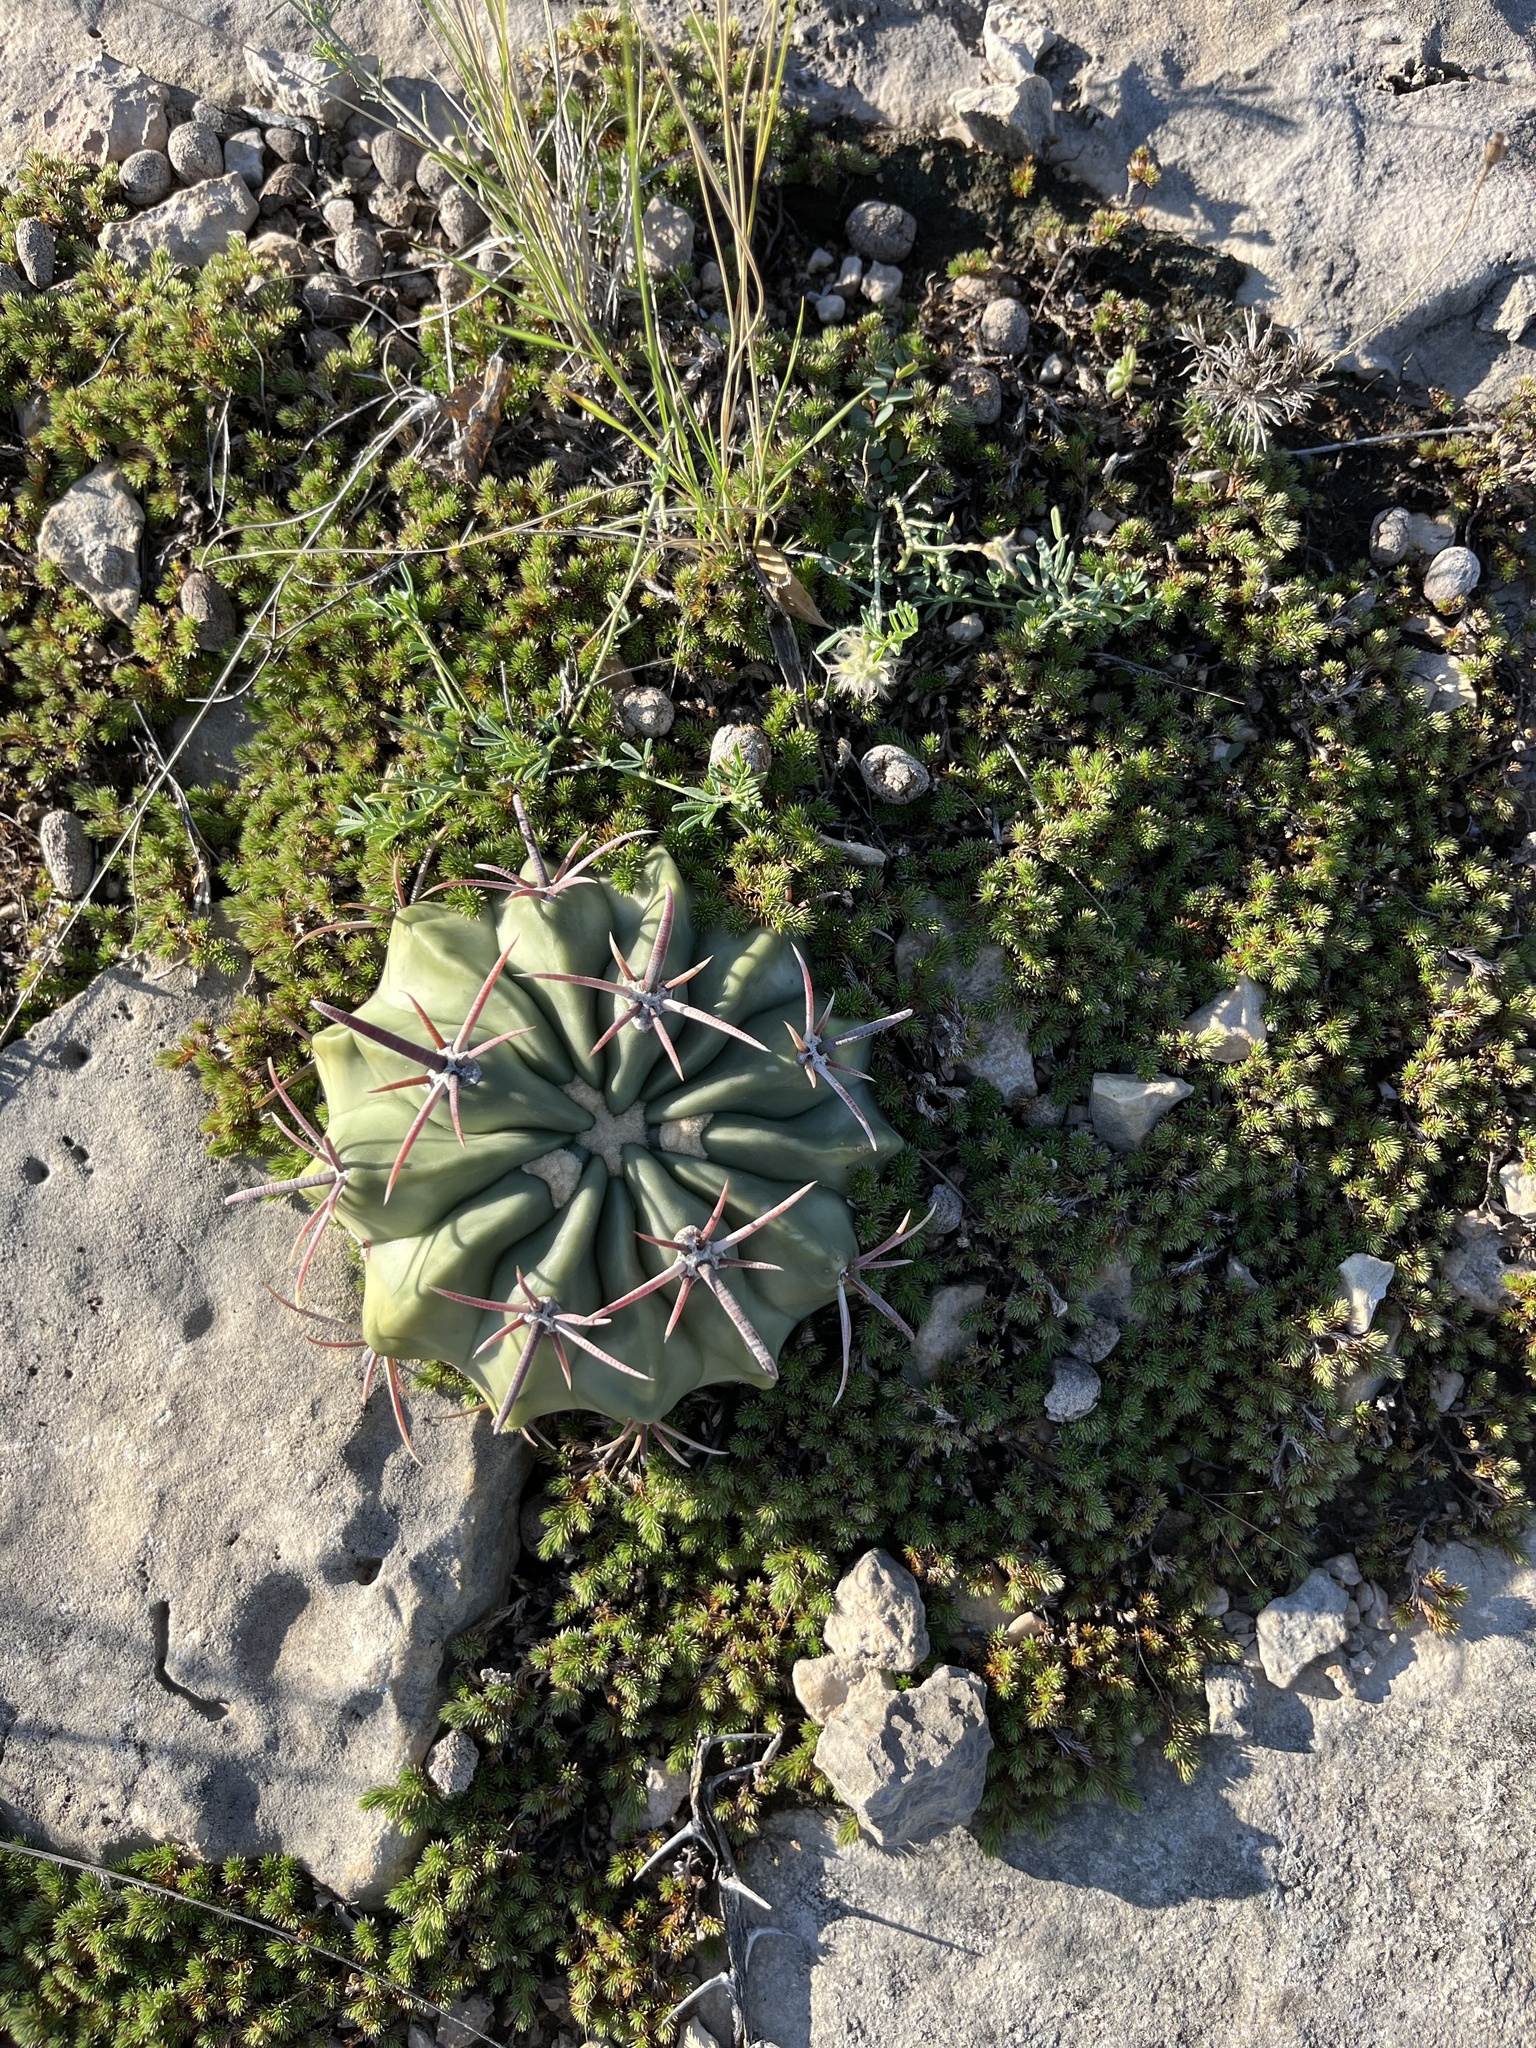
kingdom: Plantae
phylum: Tracheophyta
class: Magnoliopsida
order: Caryophyllales
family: Cactaceae
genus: Echinocactus
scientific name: Echinocactus texensis
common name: Devil's pincushion
